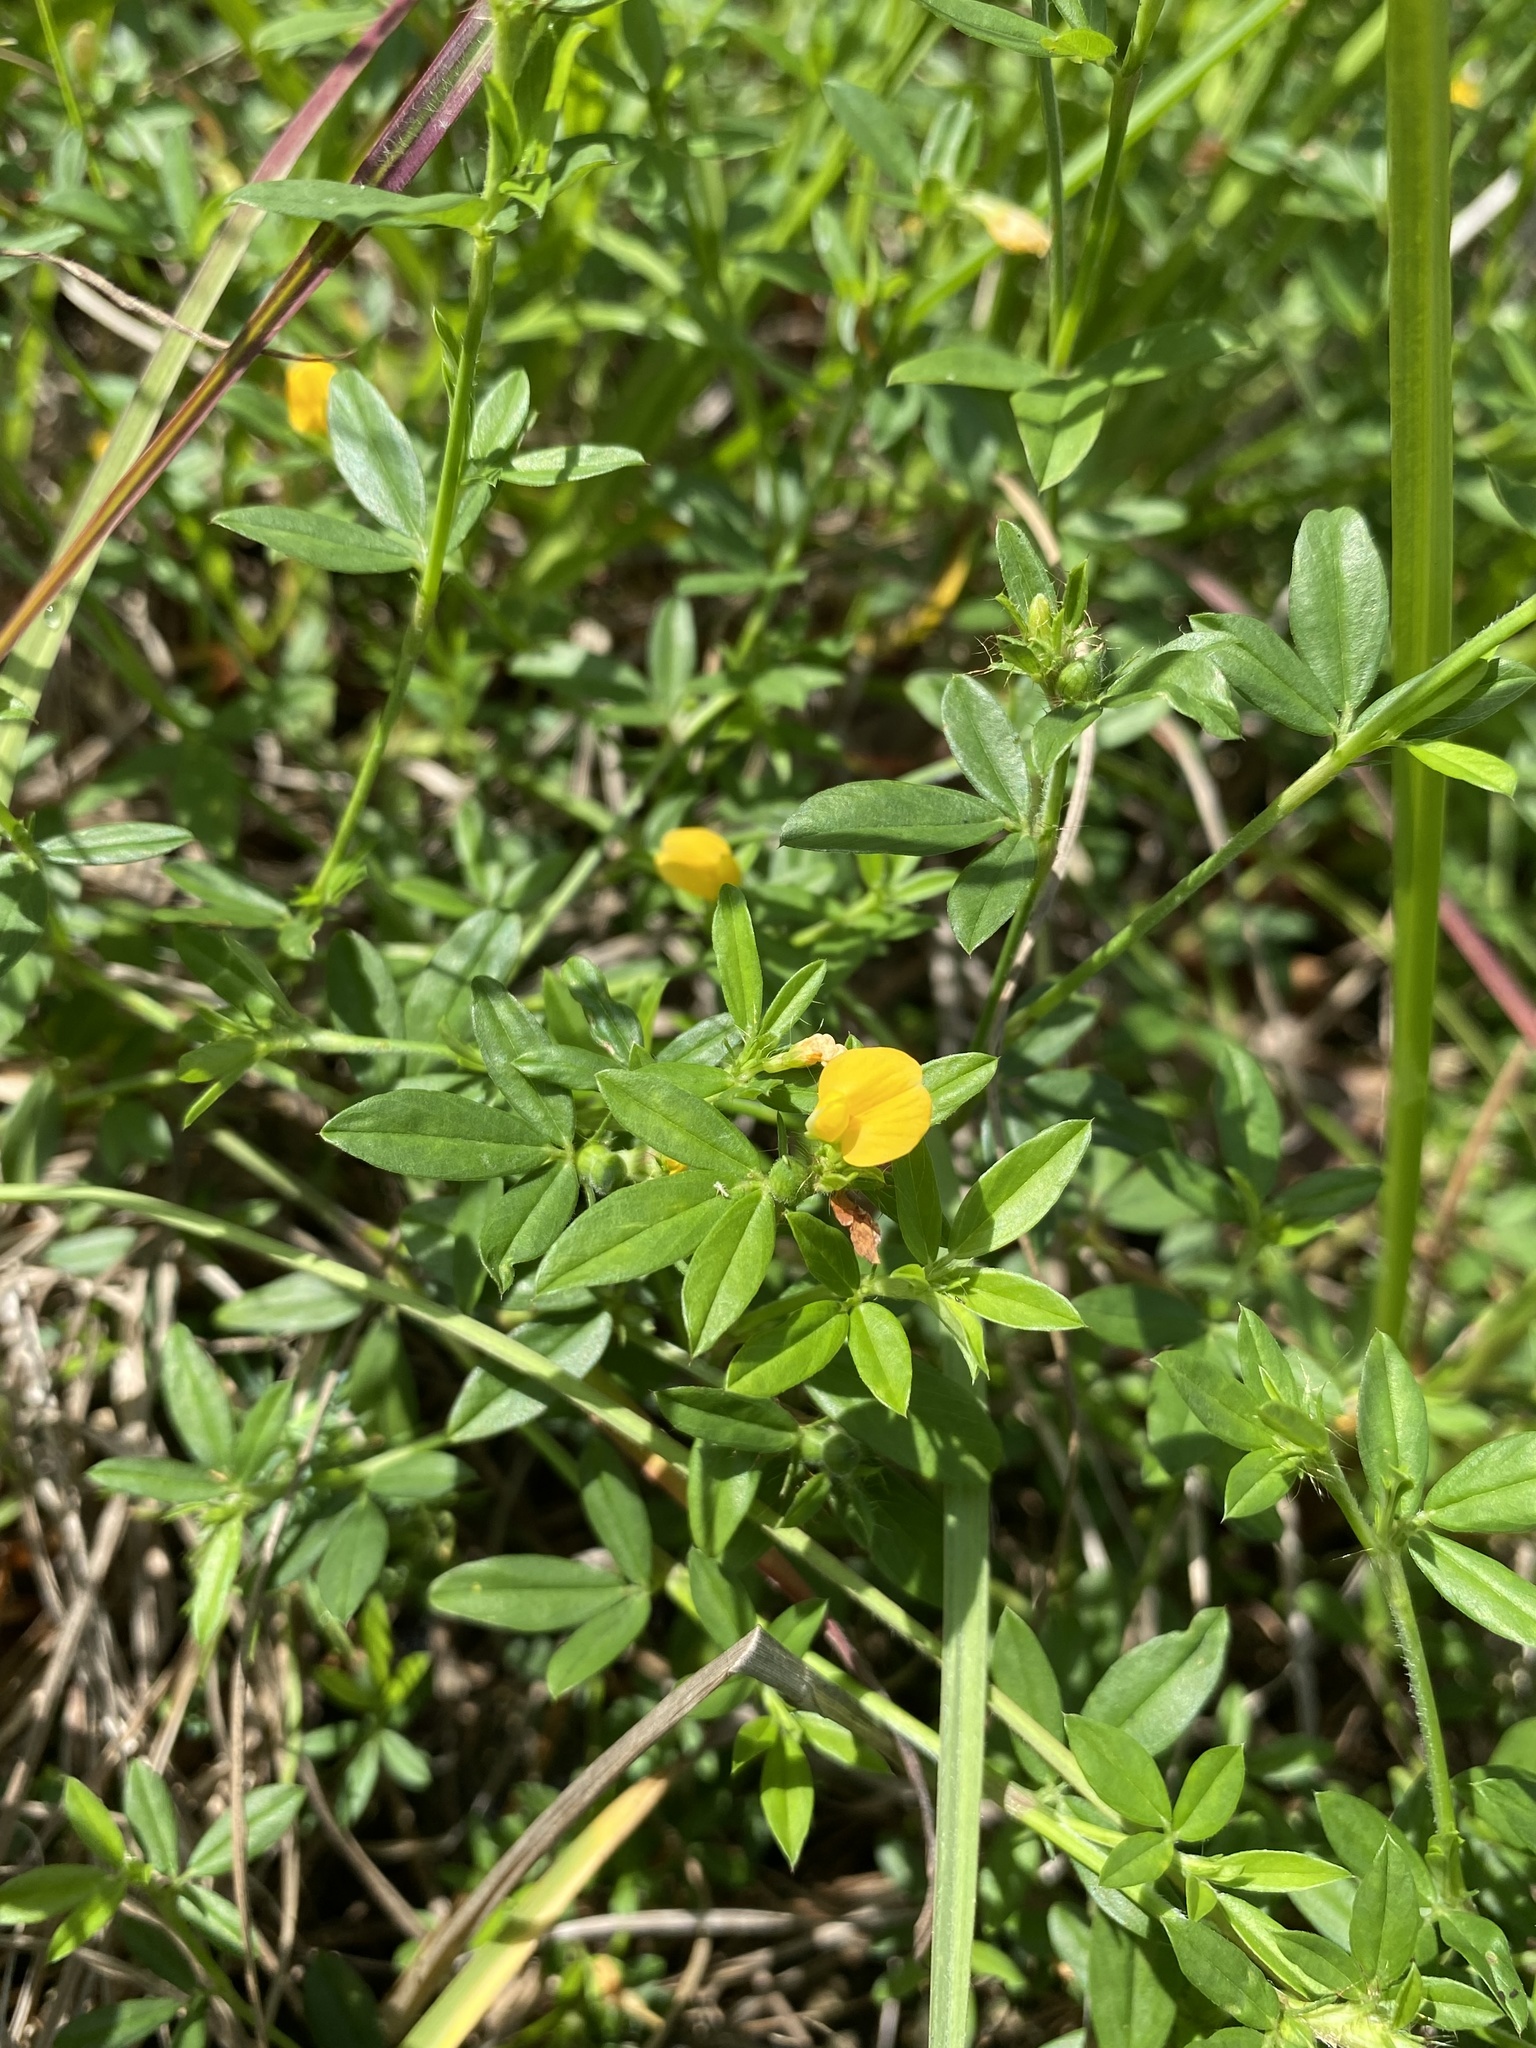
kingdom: Plantae
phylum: Tracheophyta
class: Magnoliopsida
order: Fabales
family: Fabaceae
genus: Stylosanthes
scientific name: Stylosanthes biflora
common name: Two-flower pencil-flower
